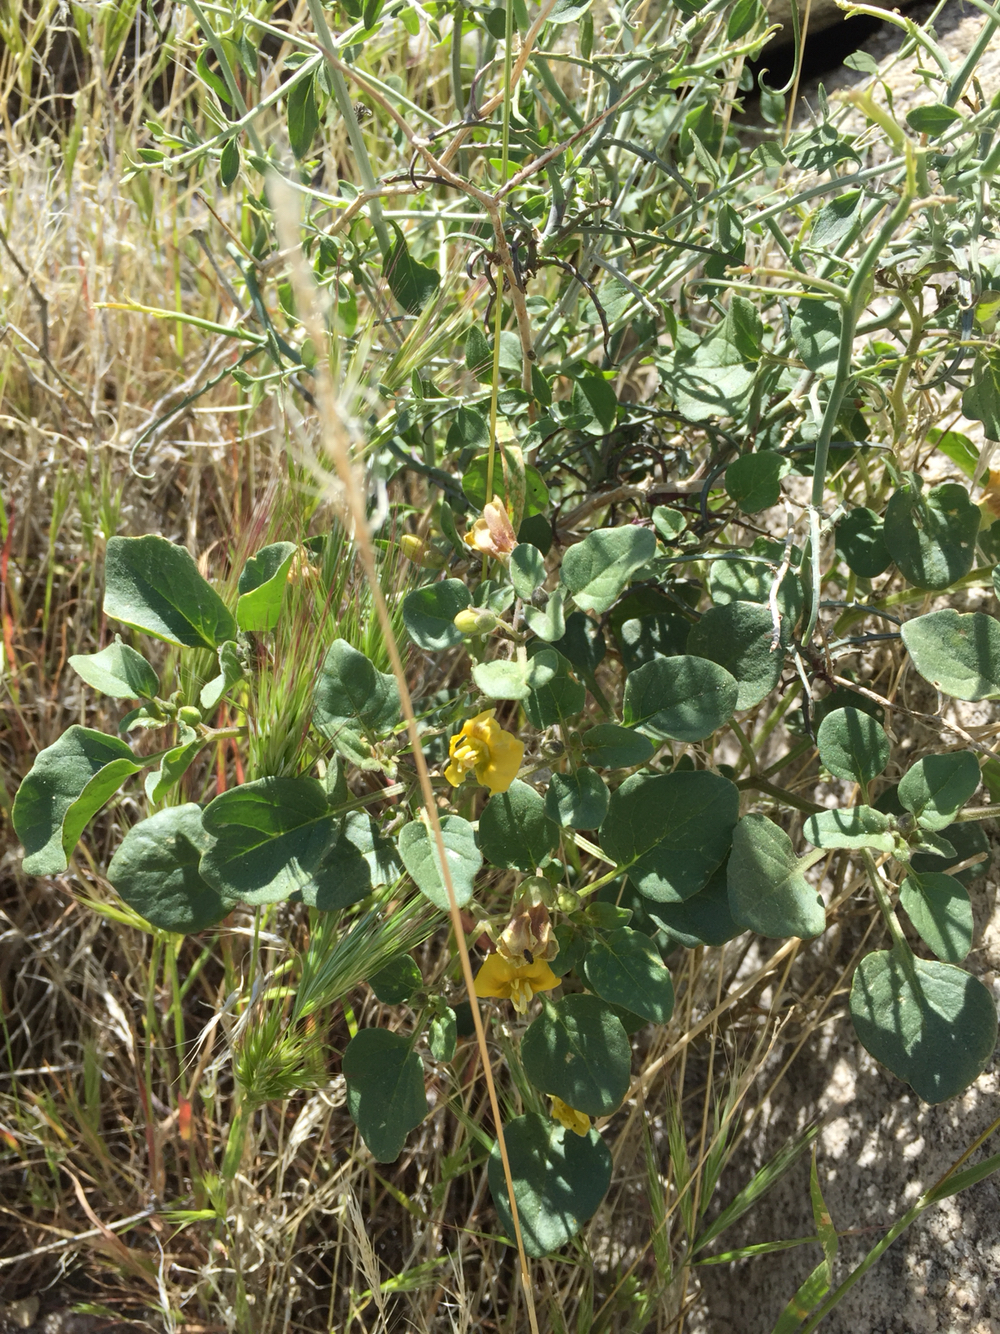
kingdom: Plantae
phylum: Tracheophyta
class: Magnoliopsida
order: Solanales
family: Solanaceae
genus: Physalis
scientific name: Physalis crassifolia
